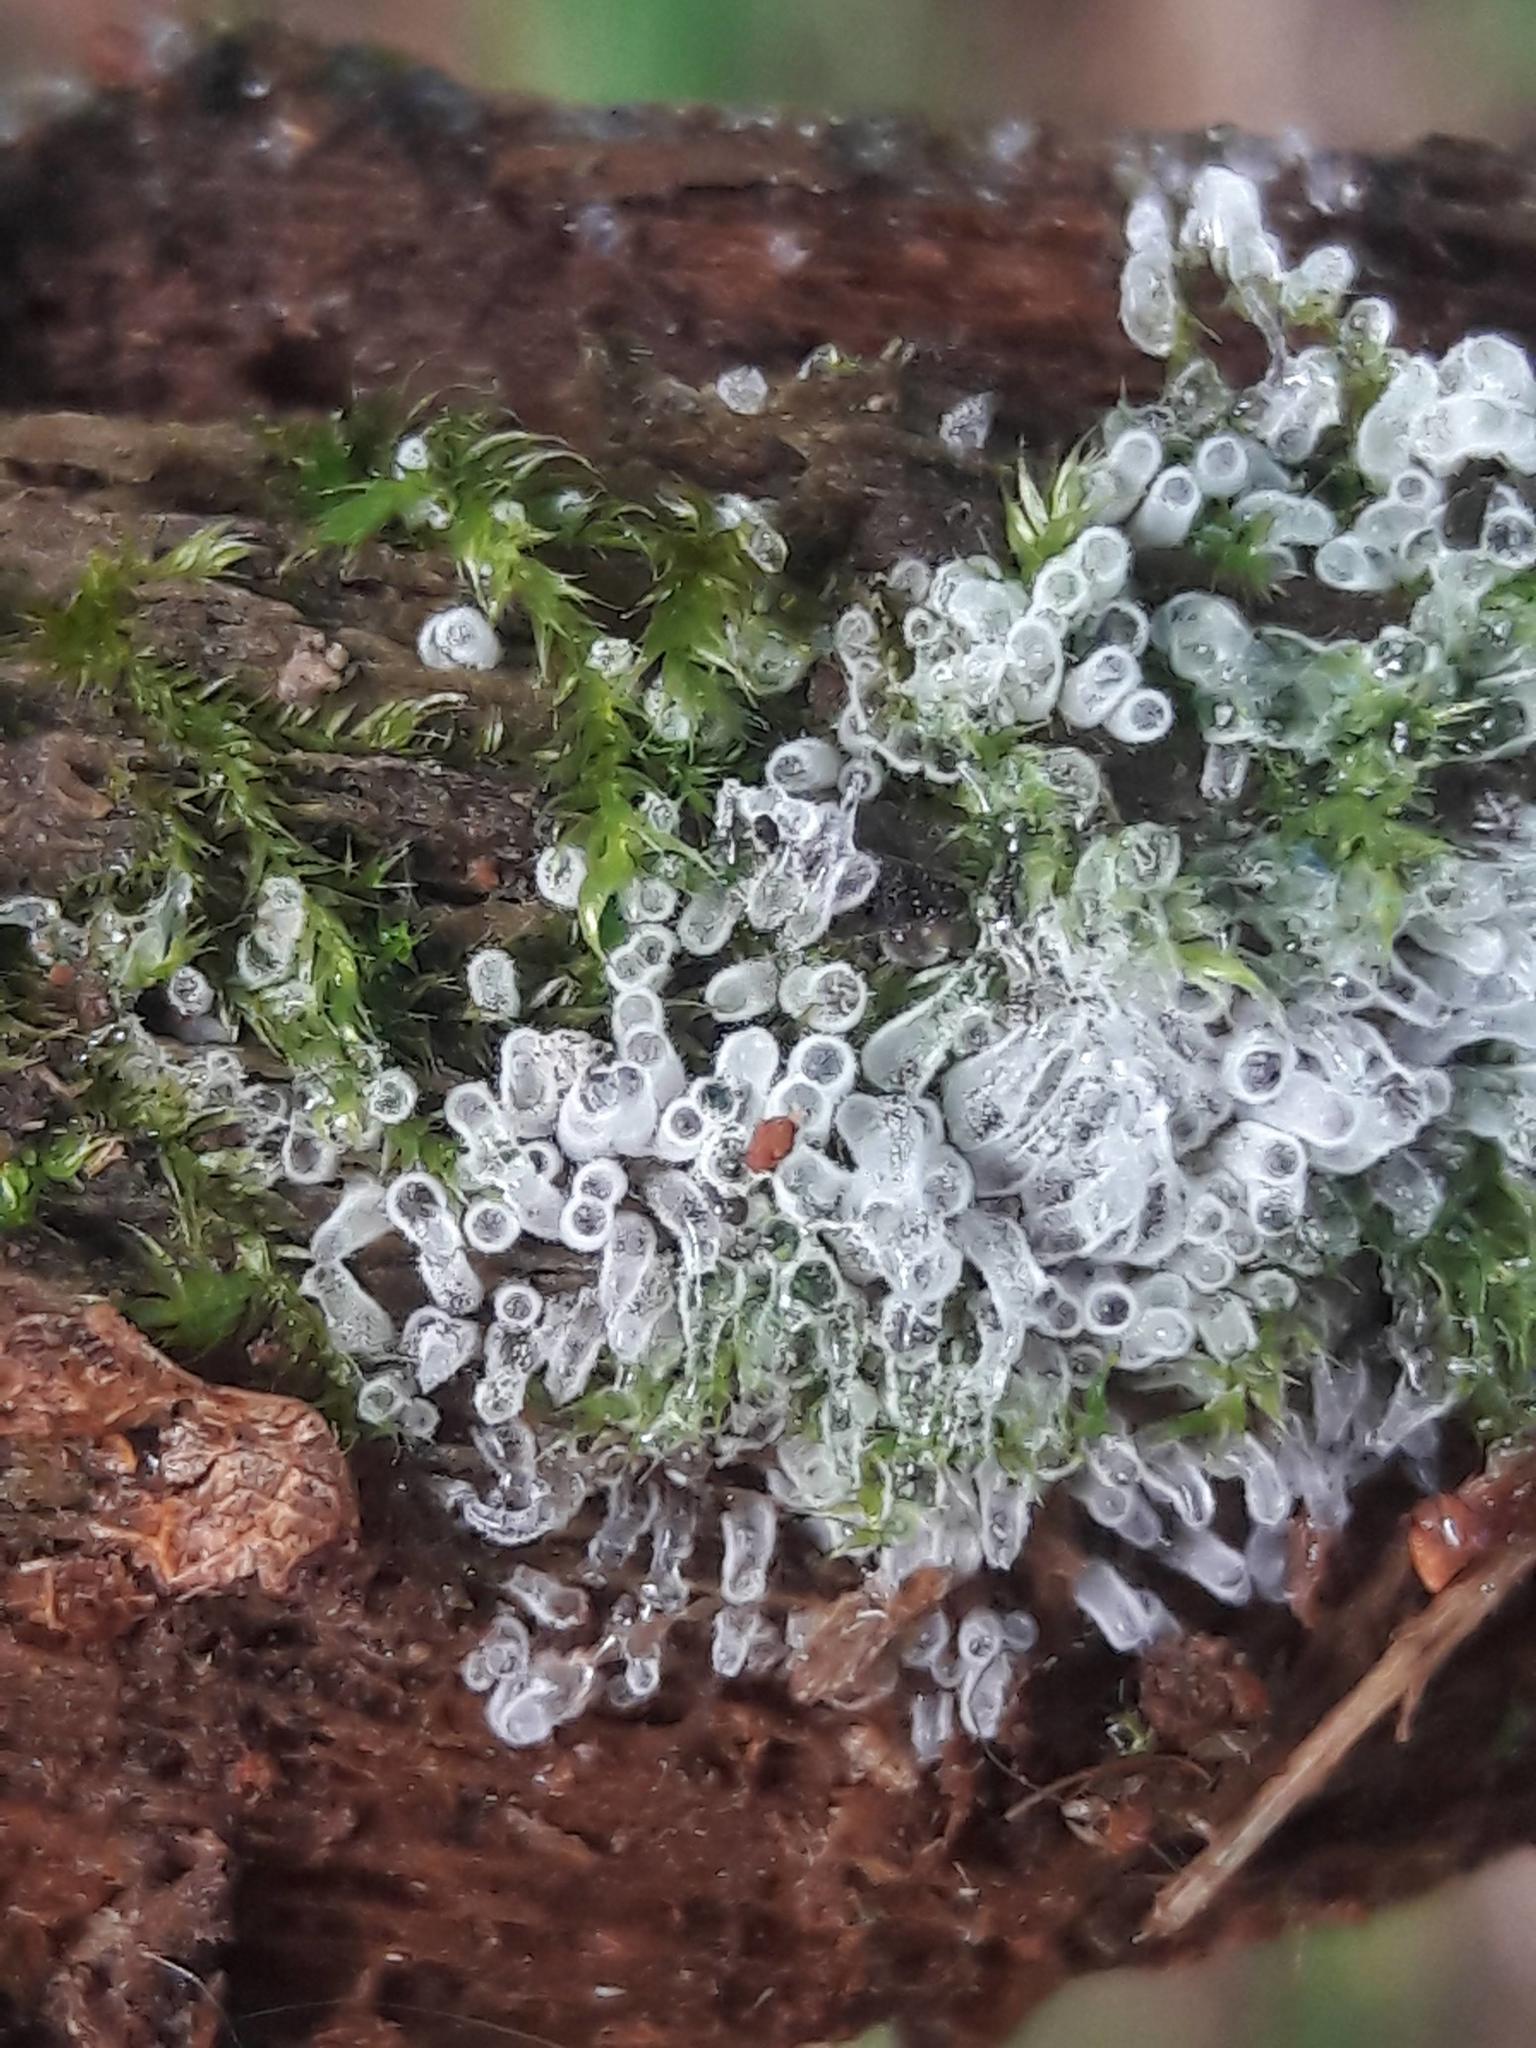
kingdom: Protozoa
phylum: Mycetozoa
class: Protosteliomycetes
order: Ceratiomyxales
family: Ceratiomyxaceae
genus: Ceratiomyxa
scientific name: Ceratiomyxa fruticulosa
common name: Honeycomb coral slime mold
